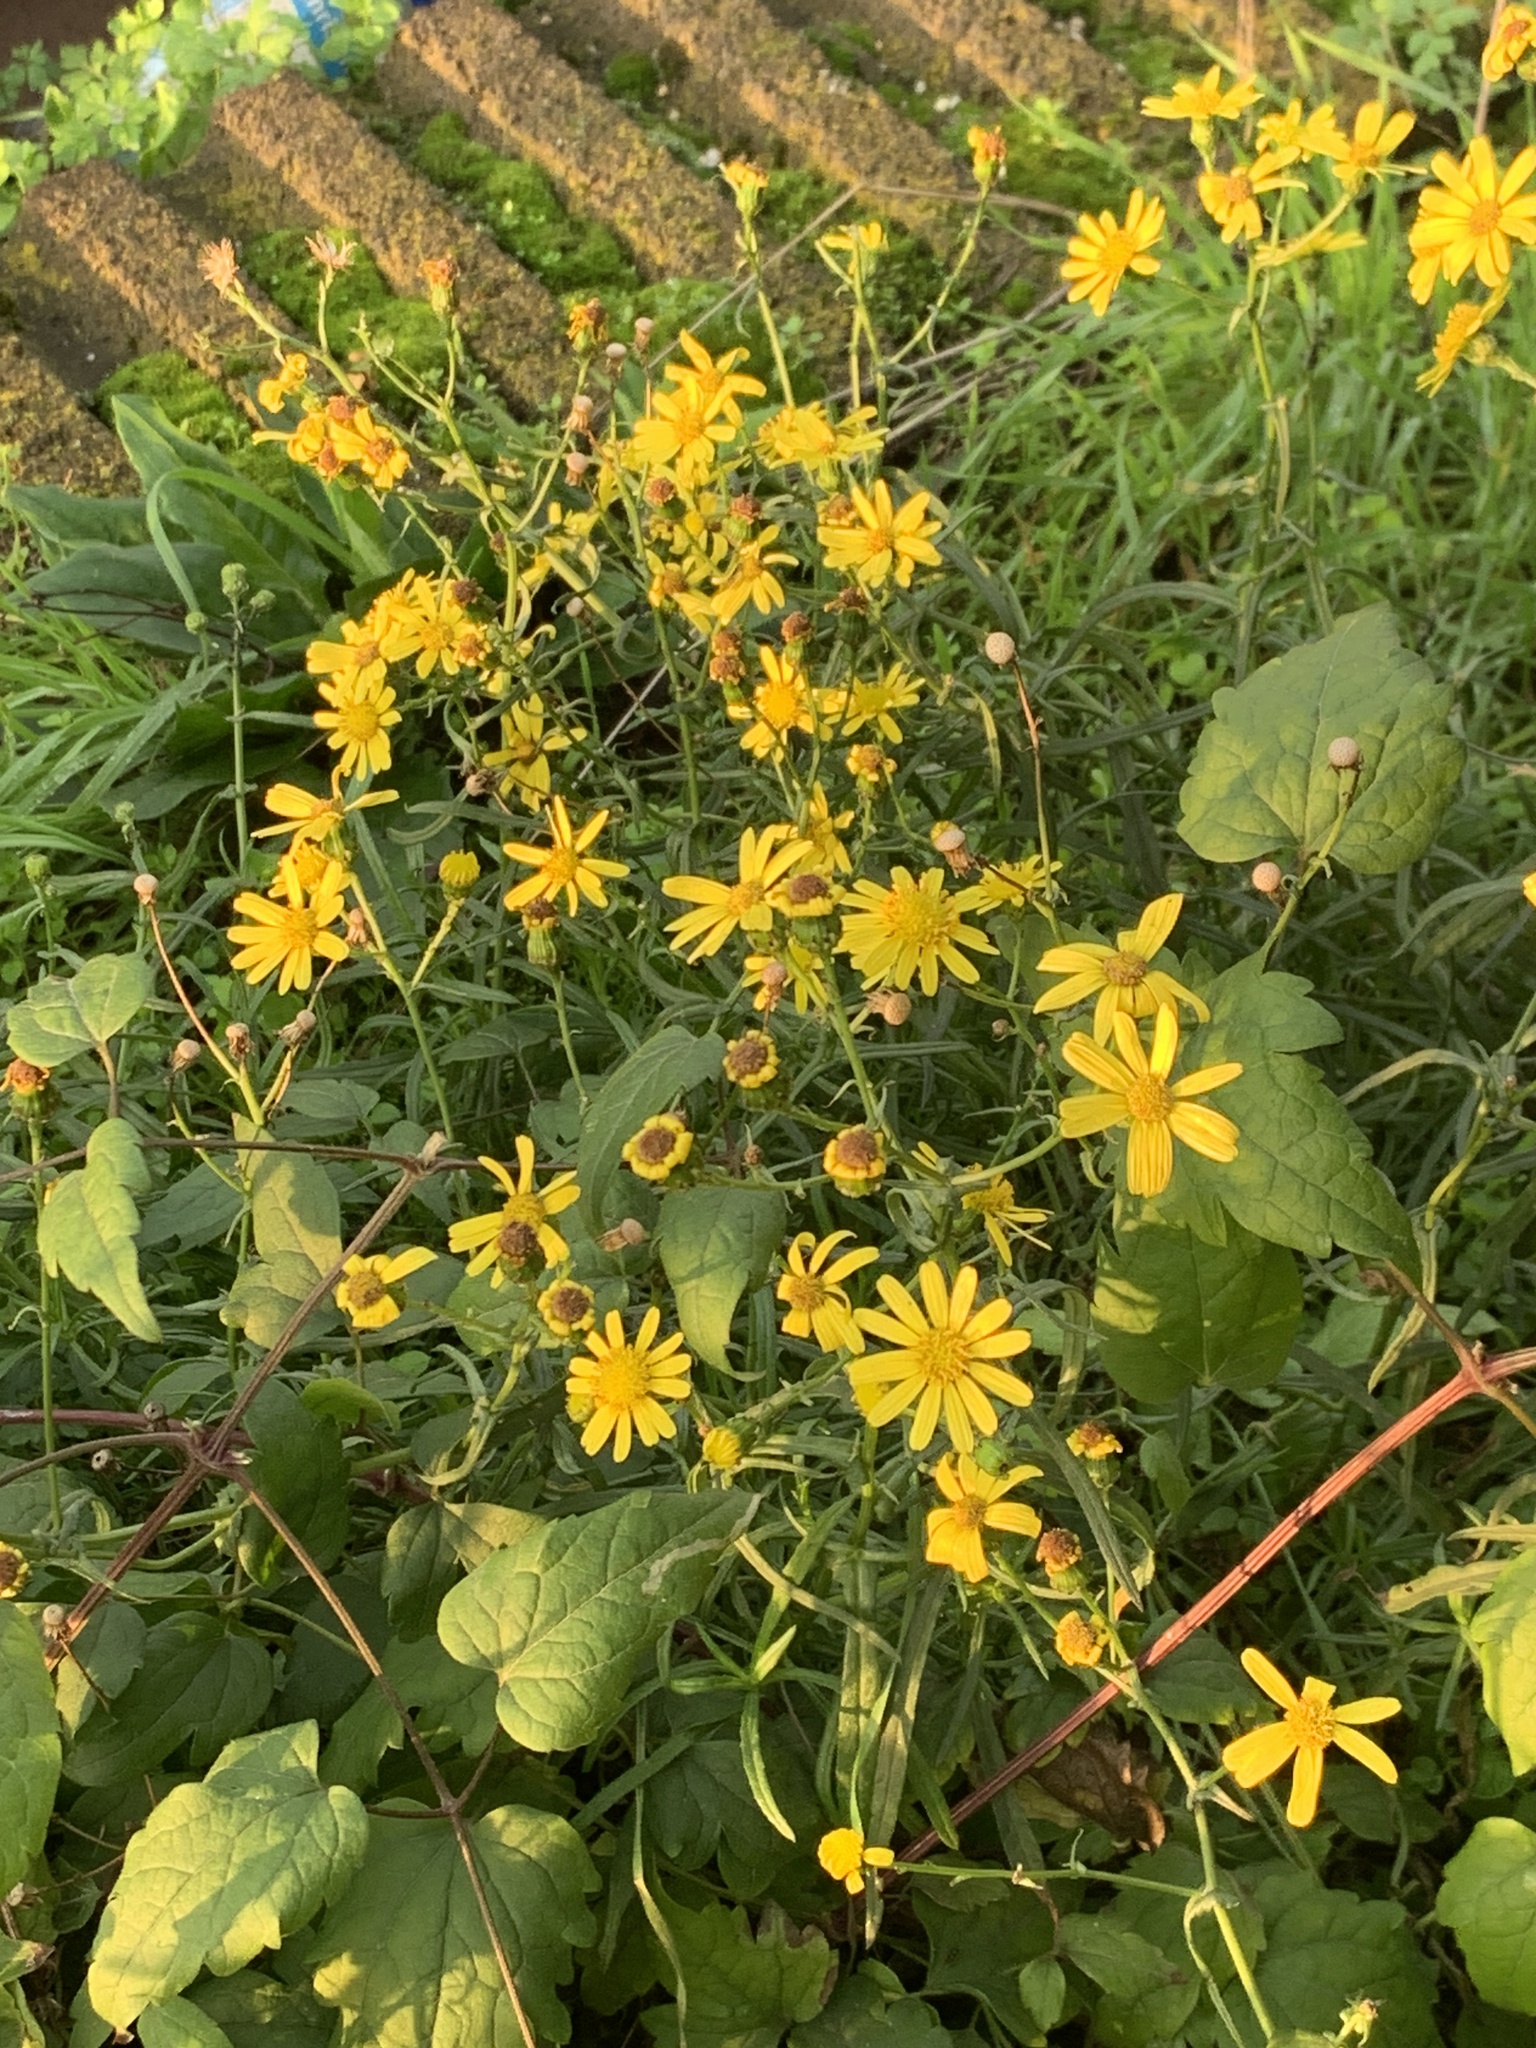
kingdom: Plantae
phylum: Tracheophyta
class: Magnoliopsida
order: Asterales
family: Asteraceae
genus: Senecio
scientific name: Senecio inaequidens
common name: Narrow-leaved ragwort
